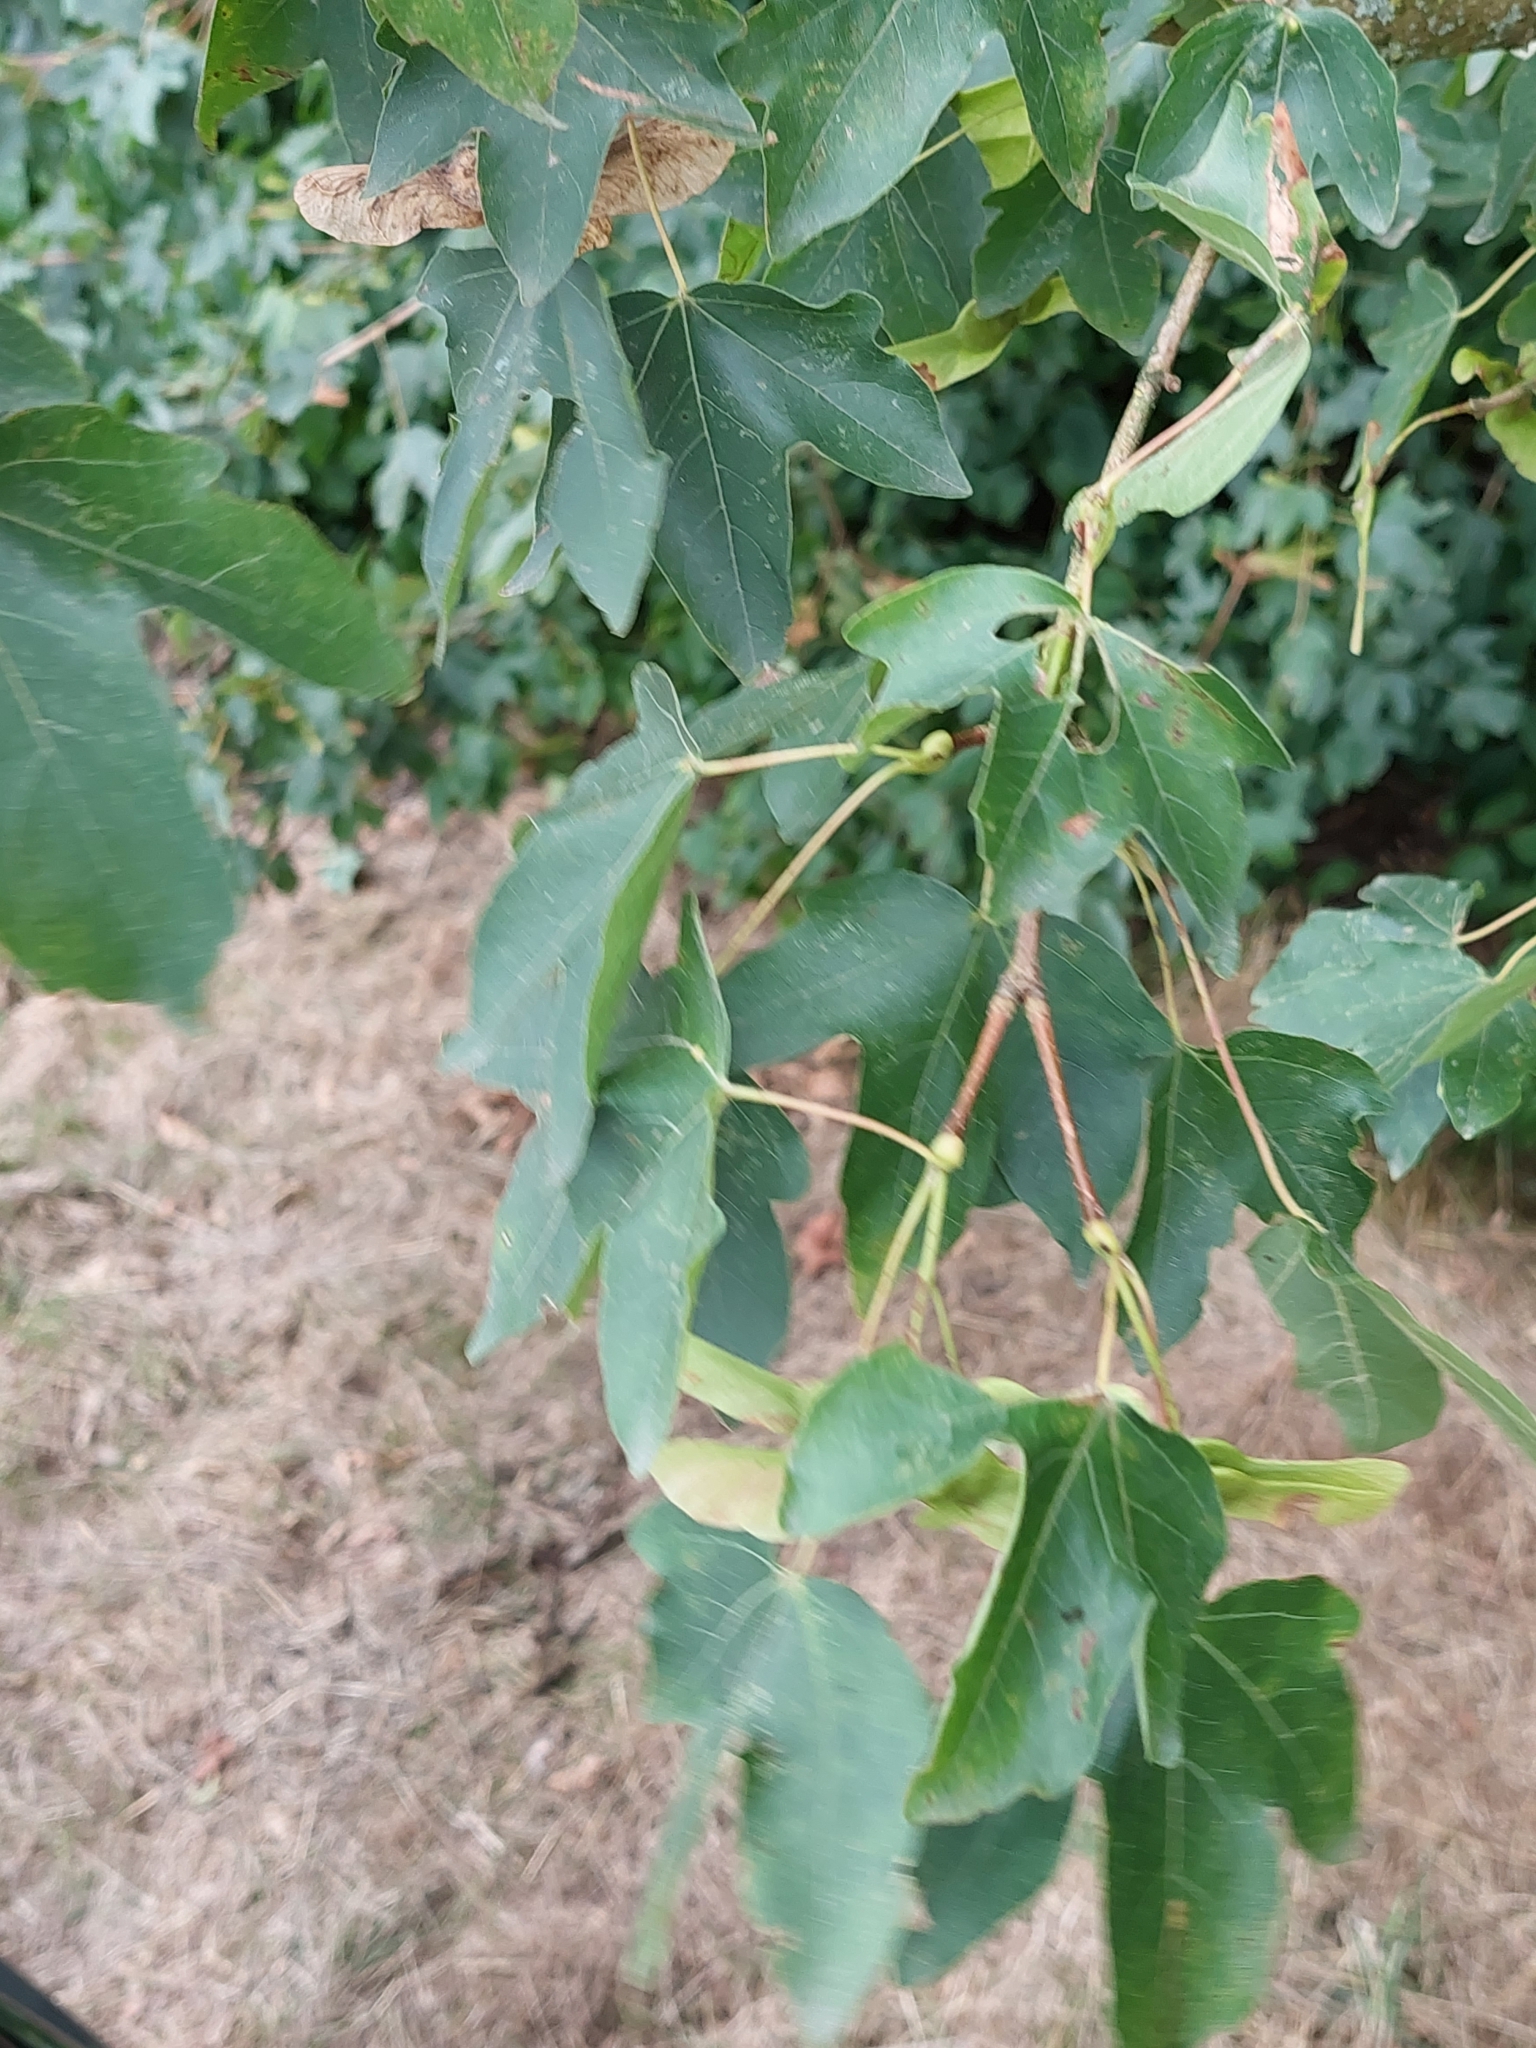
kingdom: Plantae
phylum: Tracheophyta
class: Magnoliopsida
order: Sapindales
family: Sapindaceae
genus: Acer
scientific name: Acer campestre
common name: Field maple
